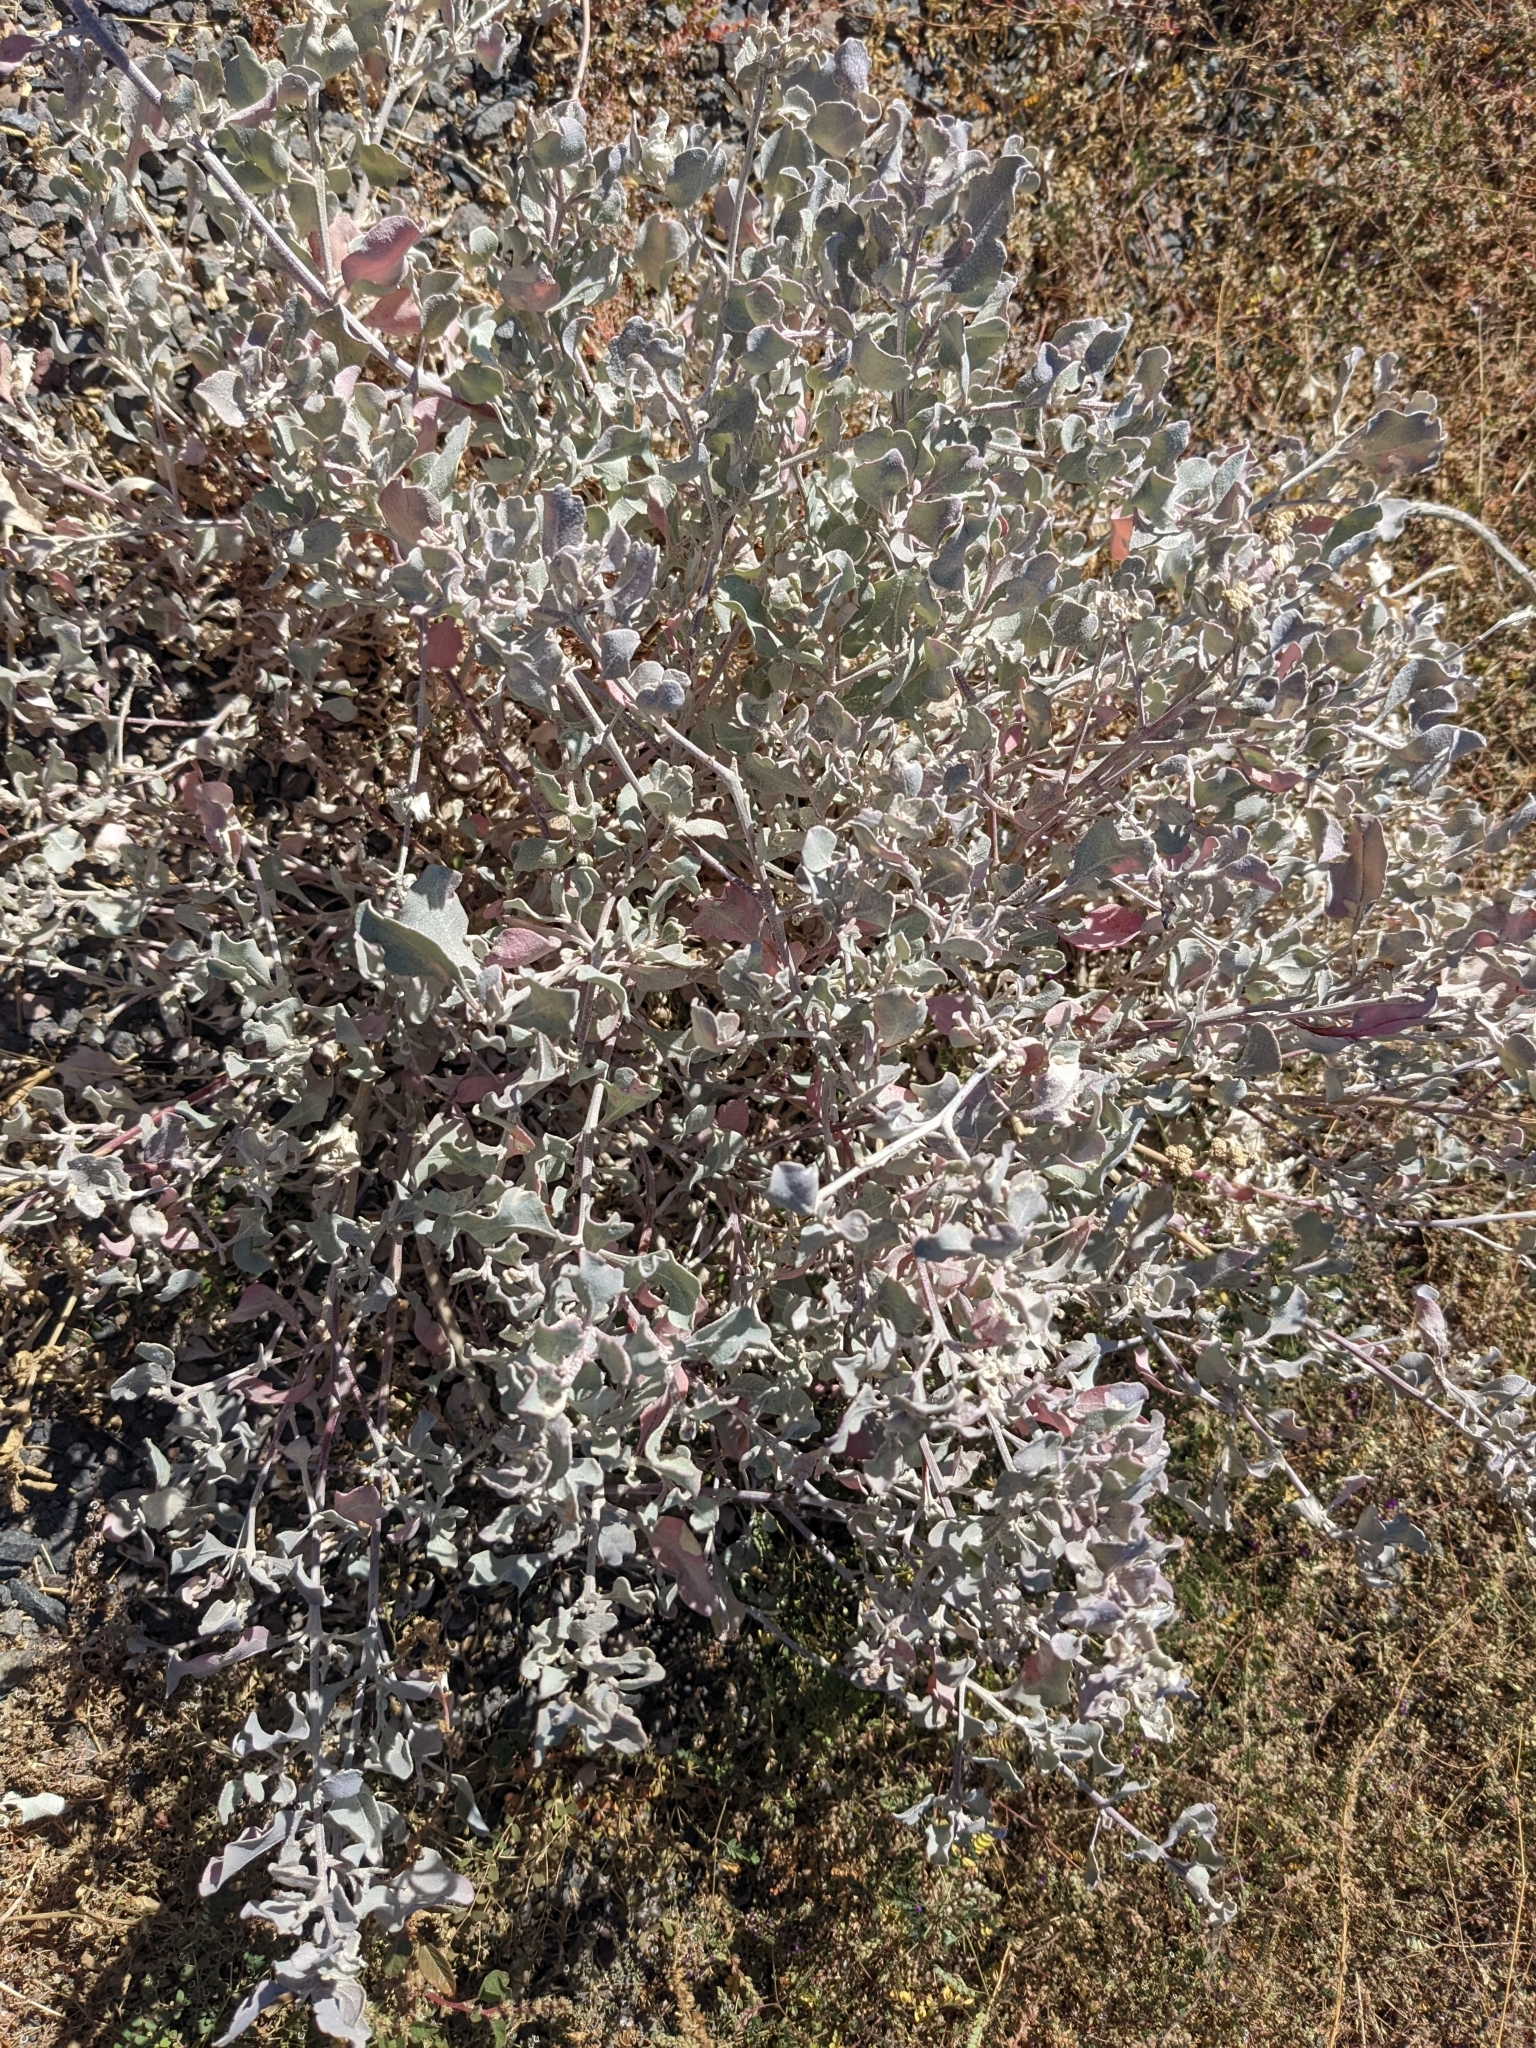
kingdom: Plantae
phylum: Tracheophyta
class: Magnoliopsida
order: Caryophyllales
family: Amaranthaceae
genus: Atriplex
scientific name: Atriplex barclayana
